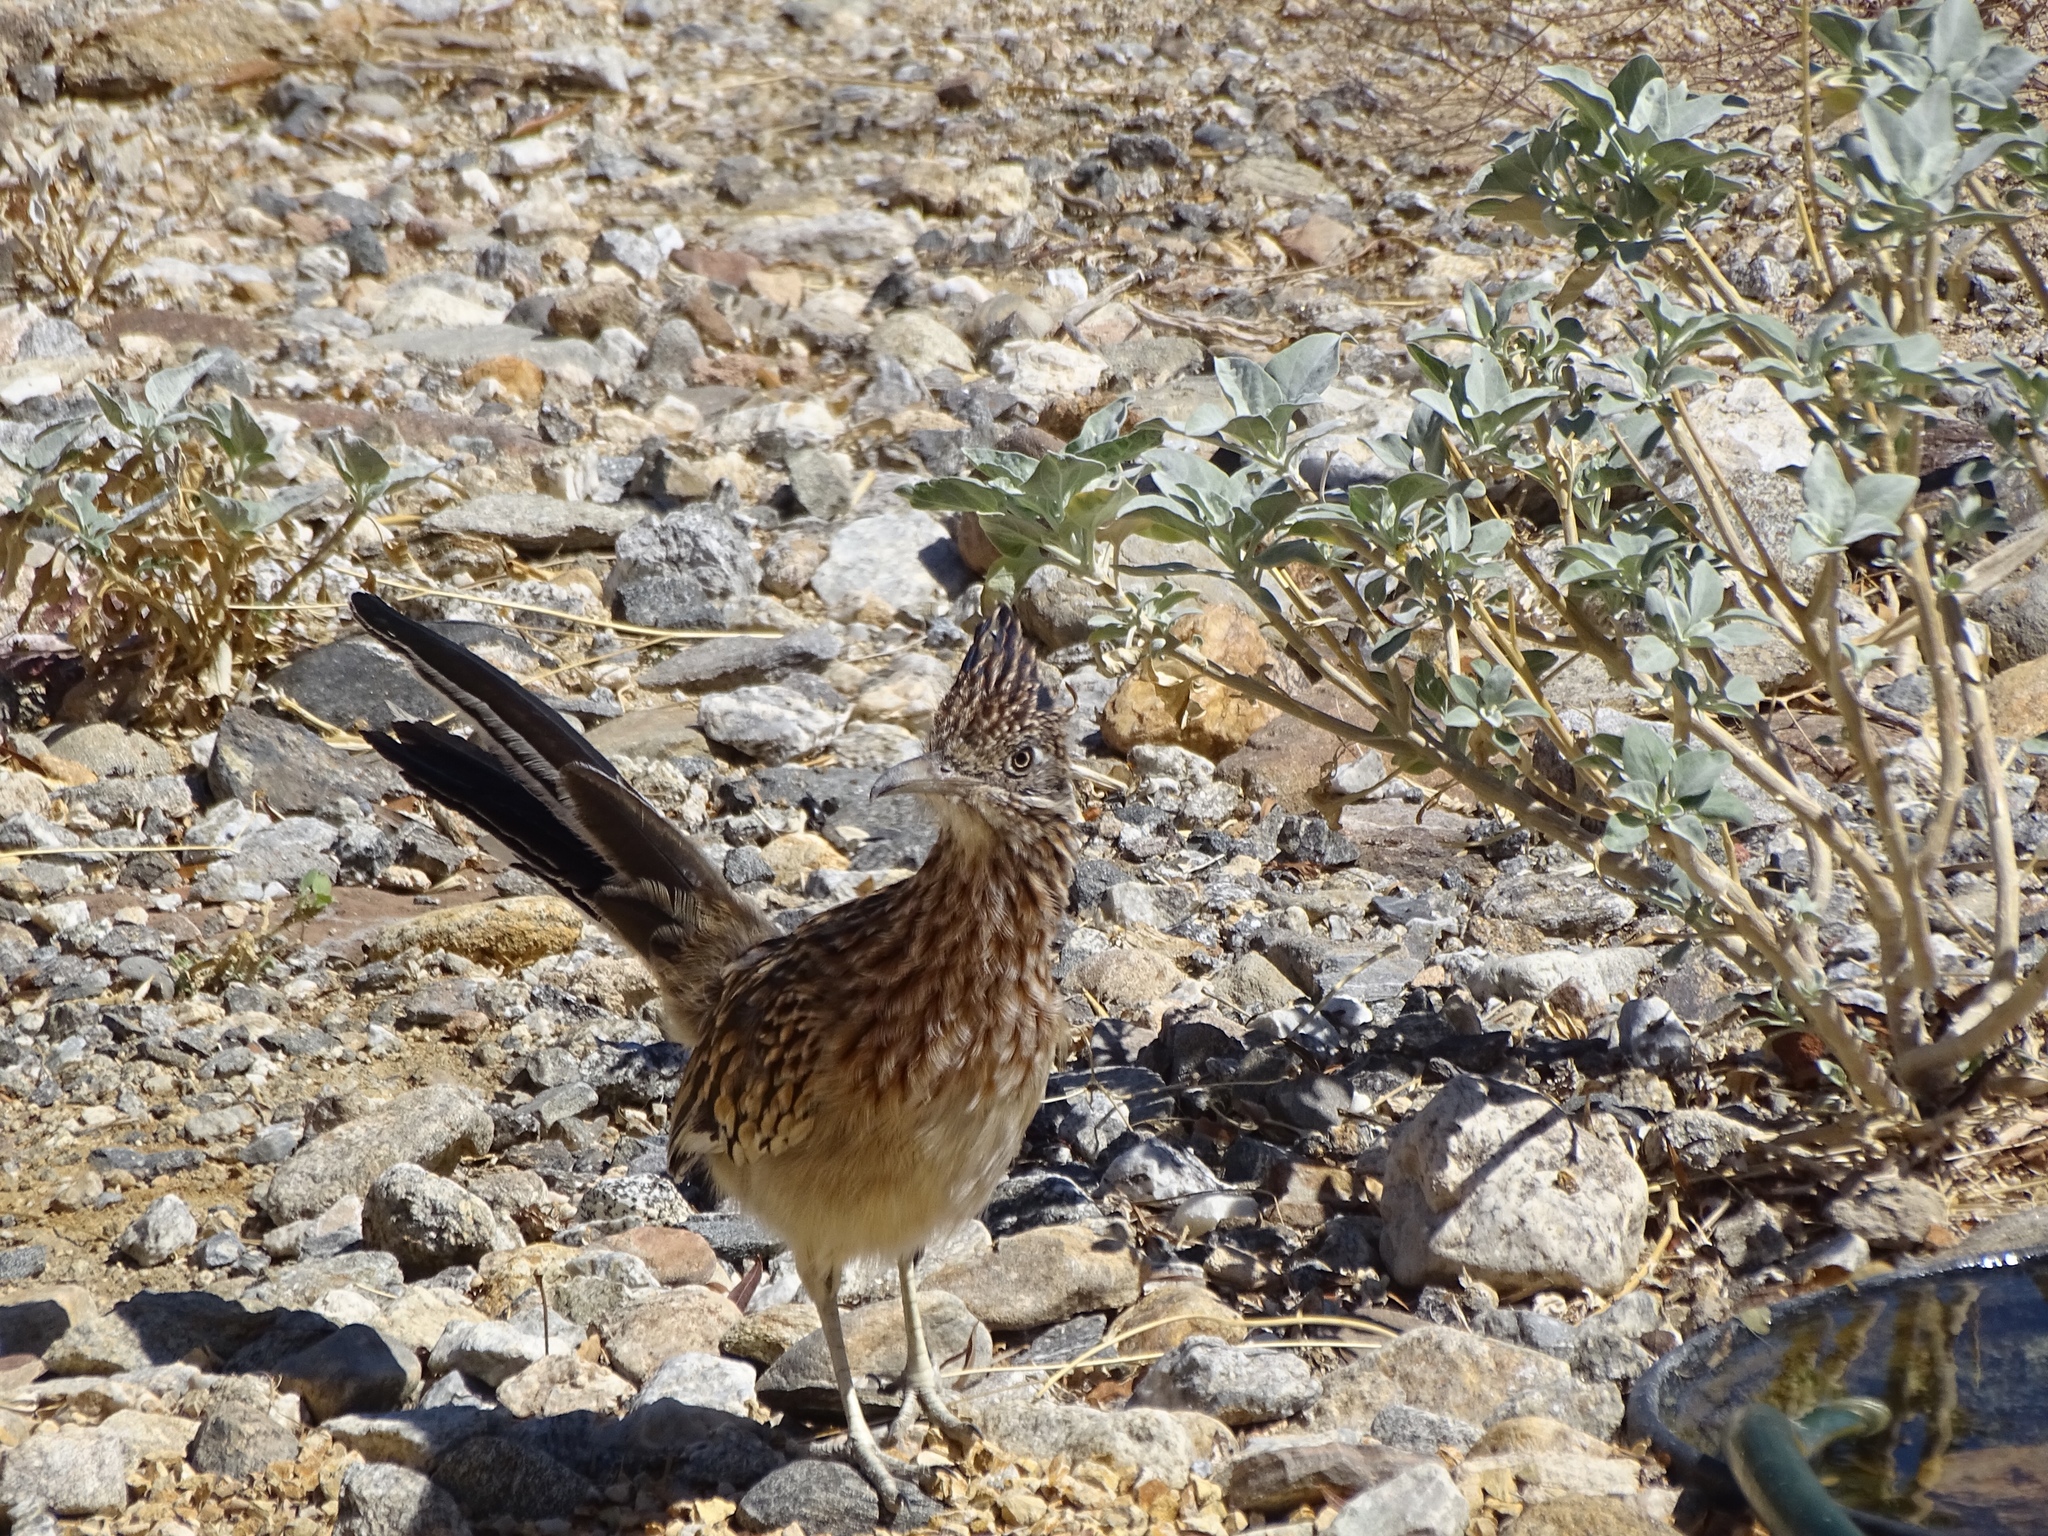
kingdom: Animalia
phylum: Chordata
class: Aves
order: Cuculiformes
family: Cuculidae
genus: Geococcyx
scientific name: Geococcyx californianus
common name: Greater roadrunner
